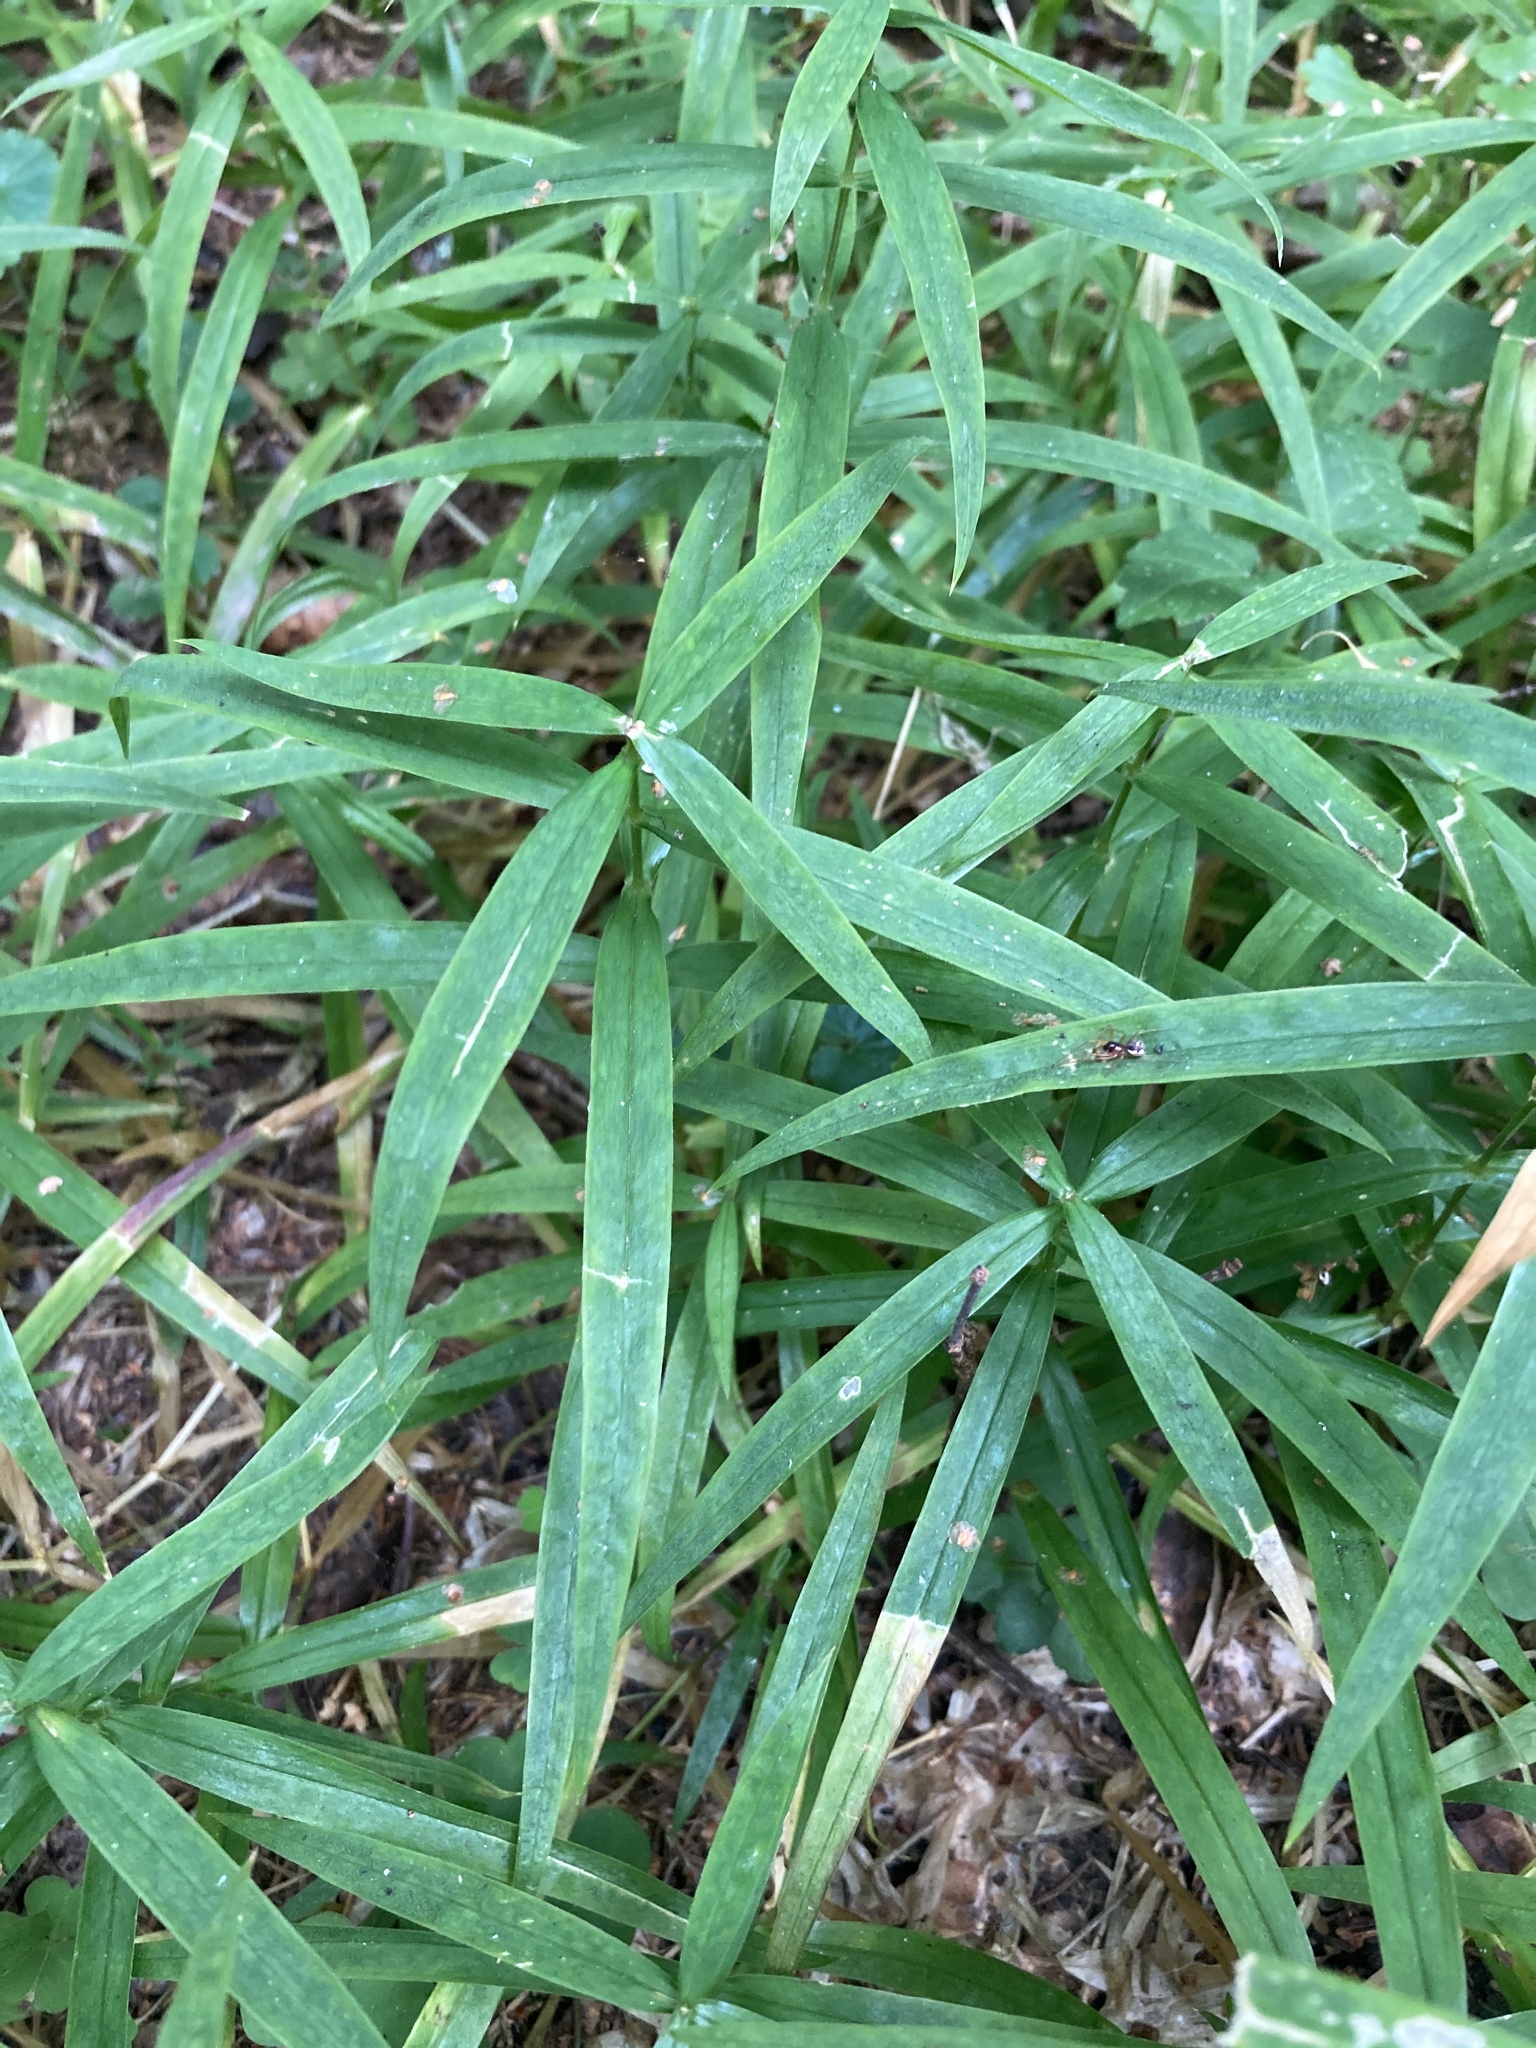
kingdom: Plantae
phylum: Tracheophyta
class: Magnoliopsida
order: Caryophyllales
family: Caryophyllaceae
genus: Rabelera
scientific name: Rabelera holostea
